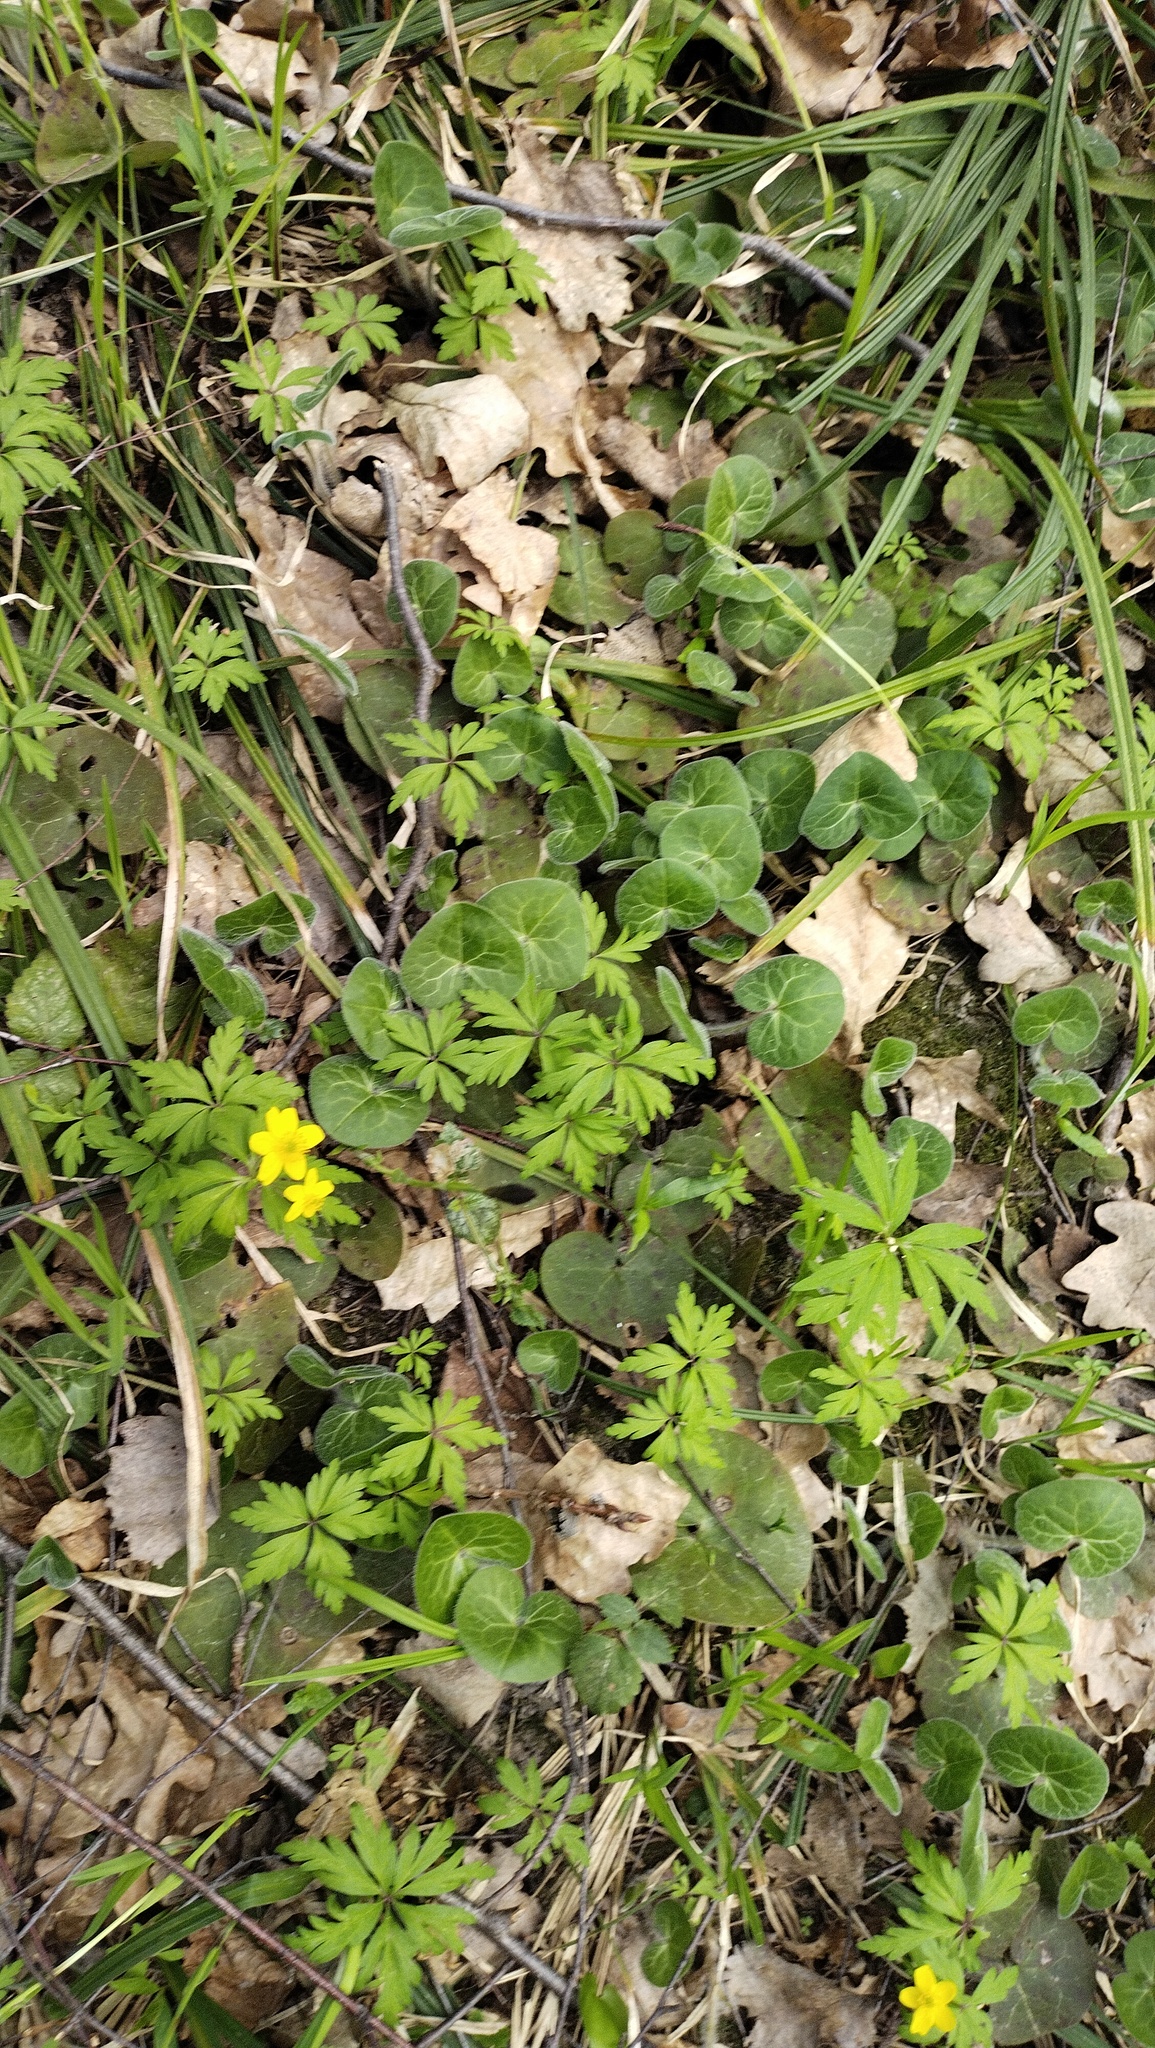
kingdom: Plantae
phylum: Tracheophyta
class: Magnoliopsida
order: Piperales
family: Aristolochiaceae
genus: Asarum
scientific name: Asarum europaeum
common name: Asarabacca
